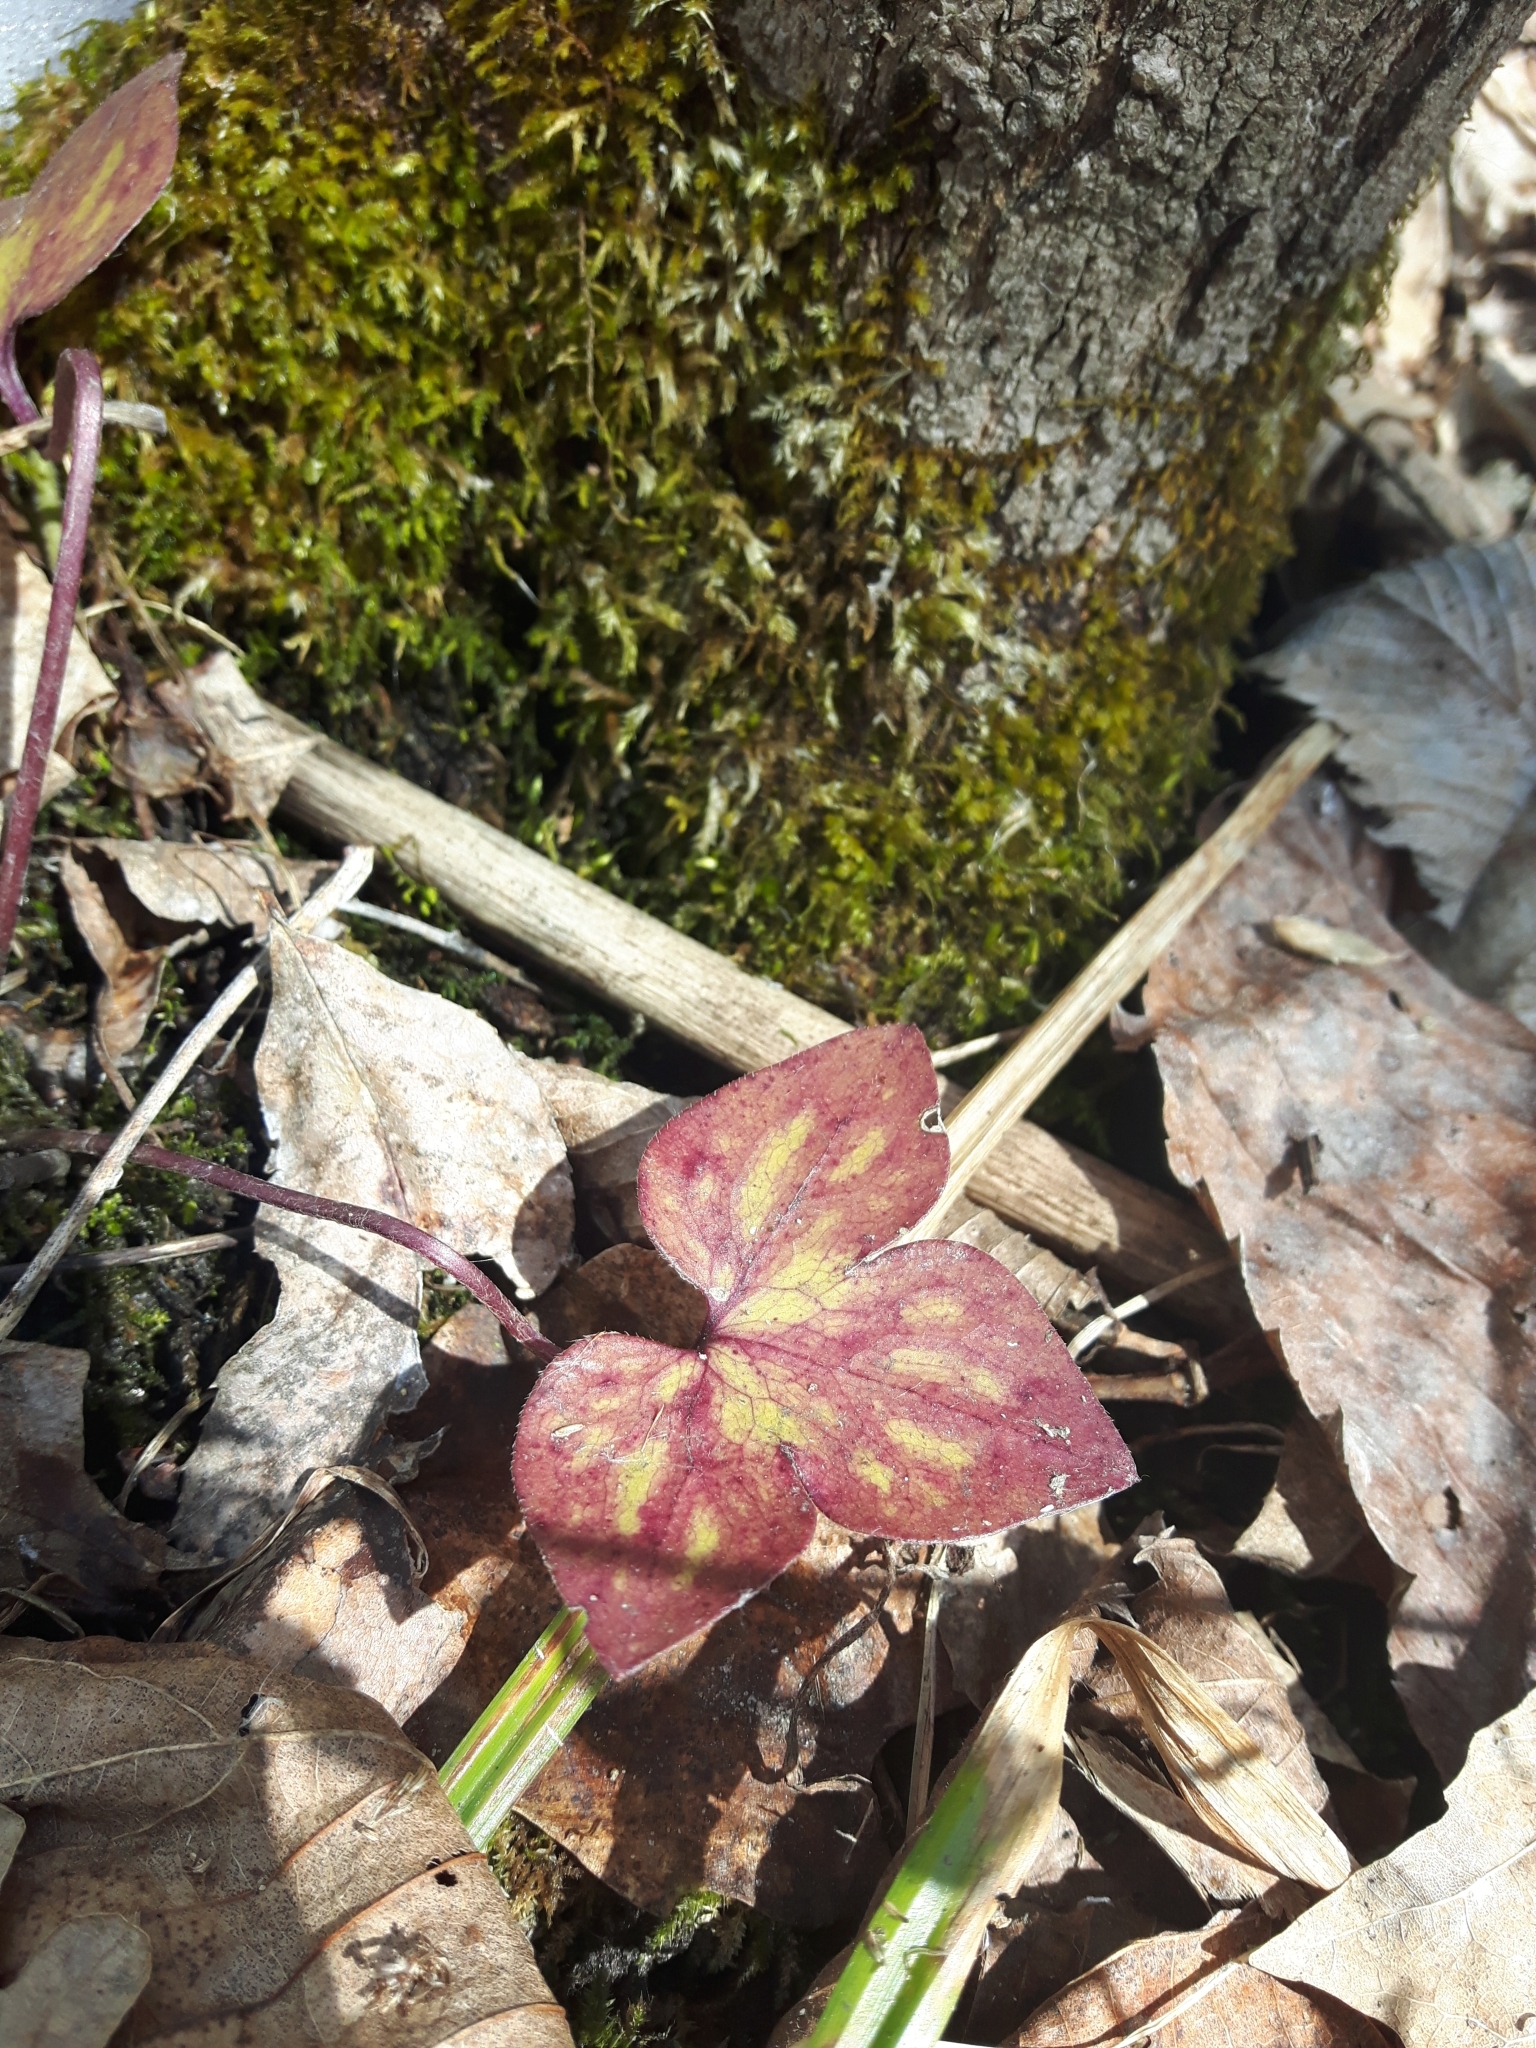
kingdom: Plantae
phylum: Tracheophyta
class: Magnoliopsida
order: Ranunculales
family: Ranunculaceae
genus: Hepatica
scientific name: Hepatica acutiloba
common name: Sharp-lobed hepatica
